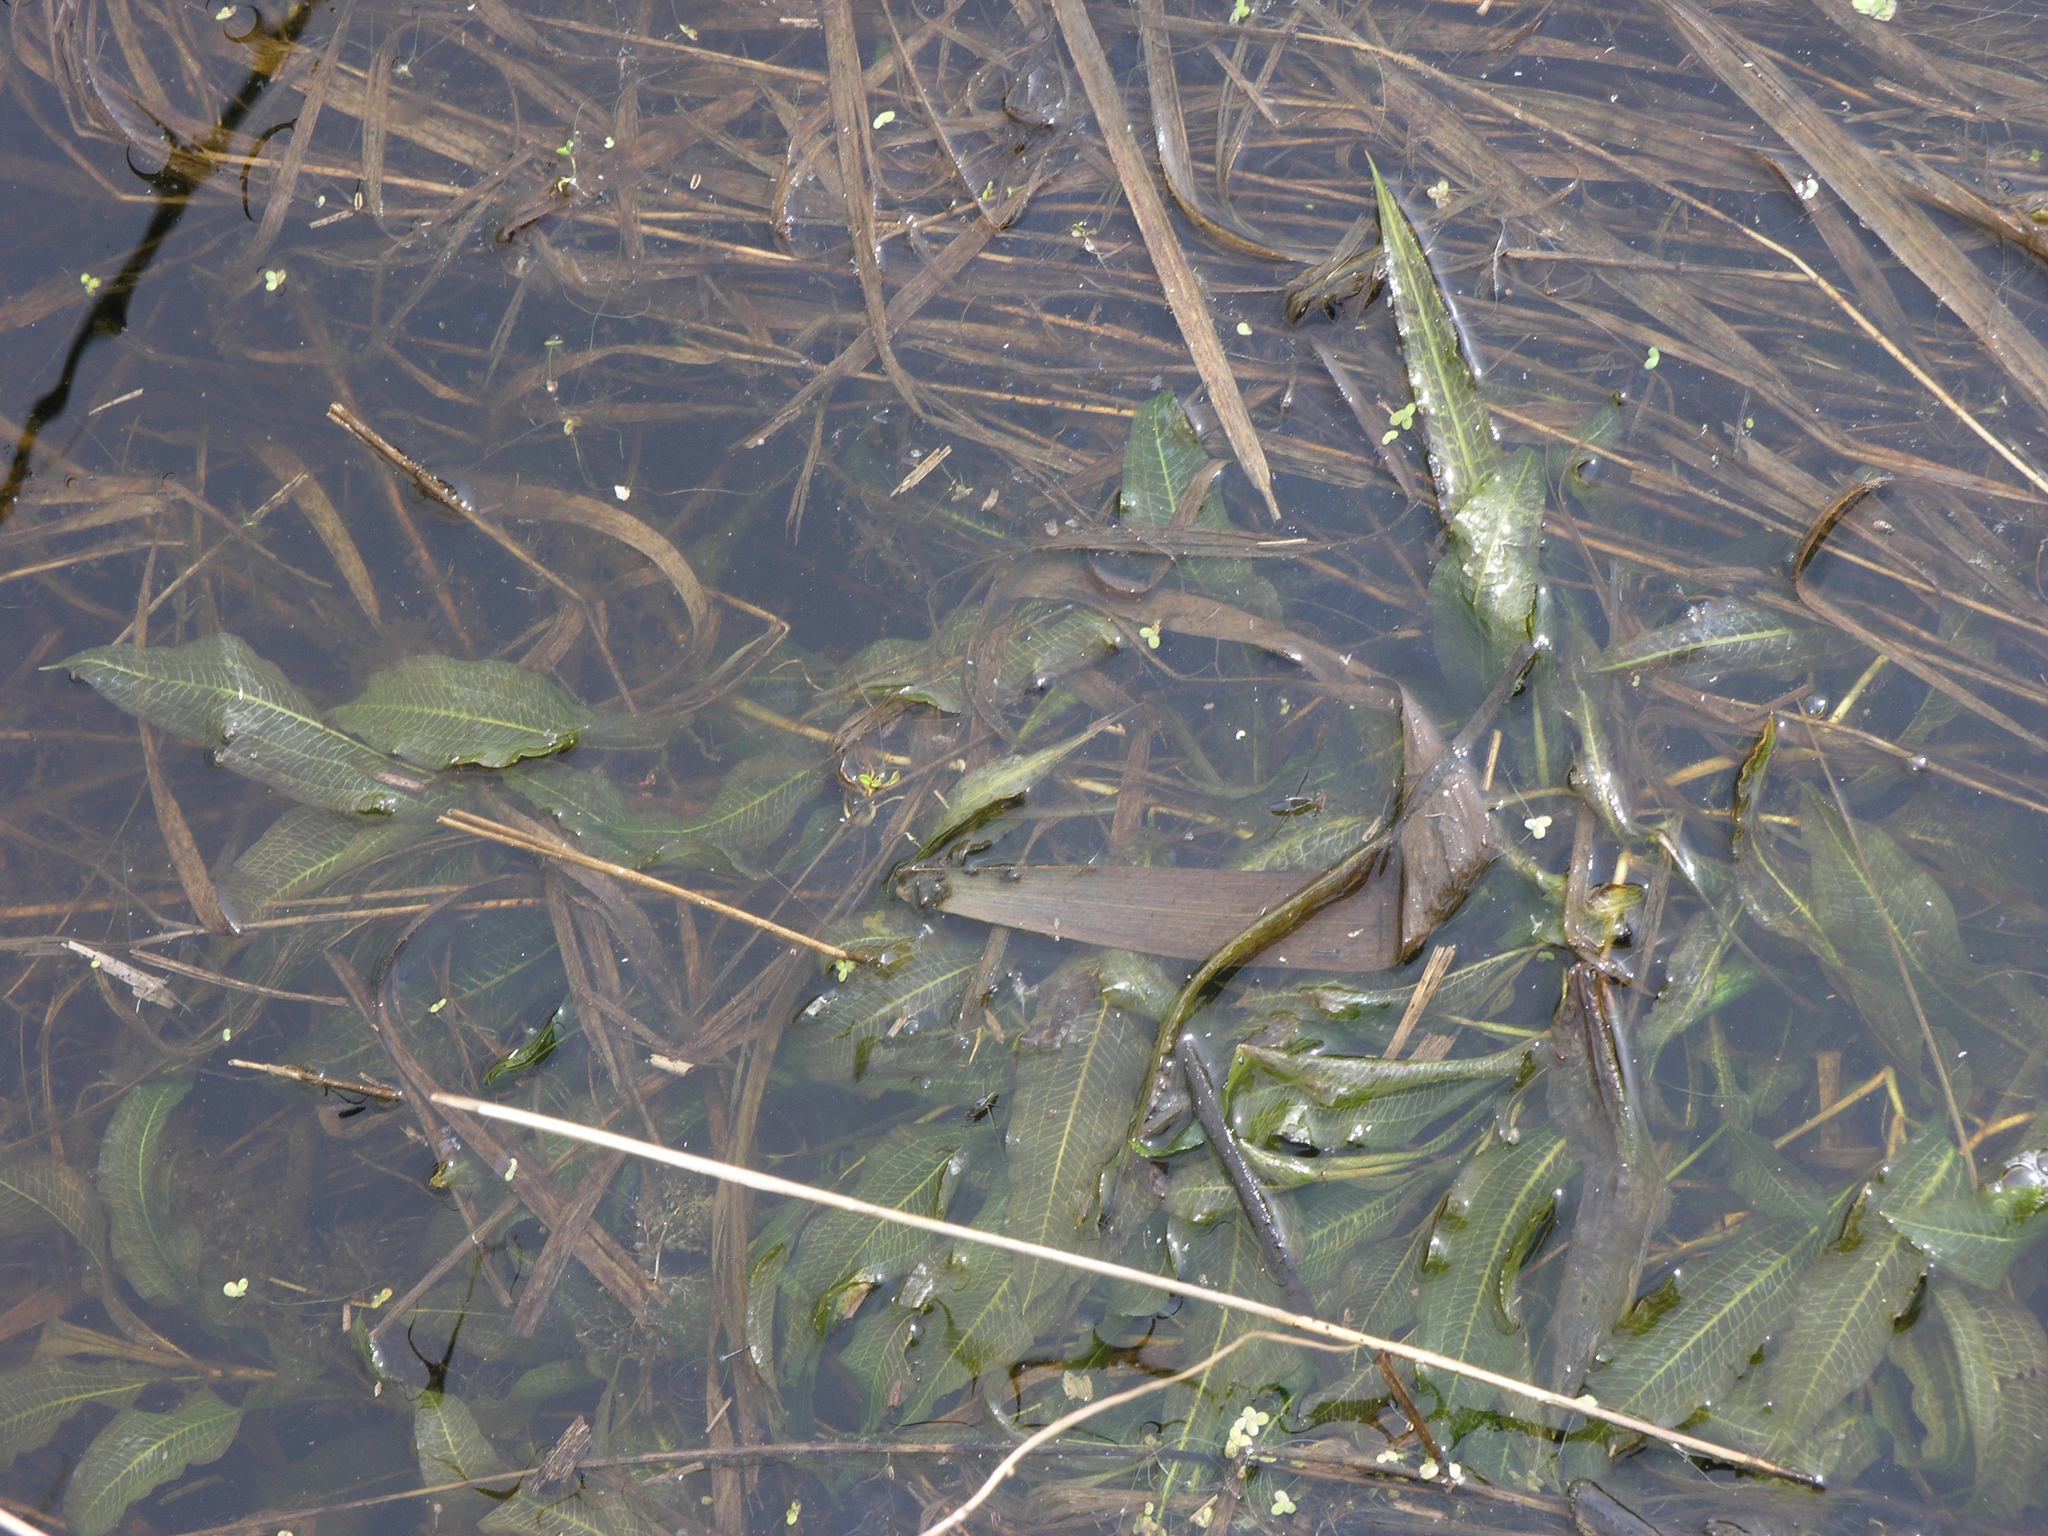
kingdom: Plantae
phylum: Tracheophyta
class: Liliopsida
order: Alismatales
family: Potamogetonaceae
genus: Potamogeton
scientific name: Potamogeton lucens
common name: Shining pondweed
